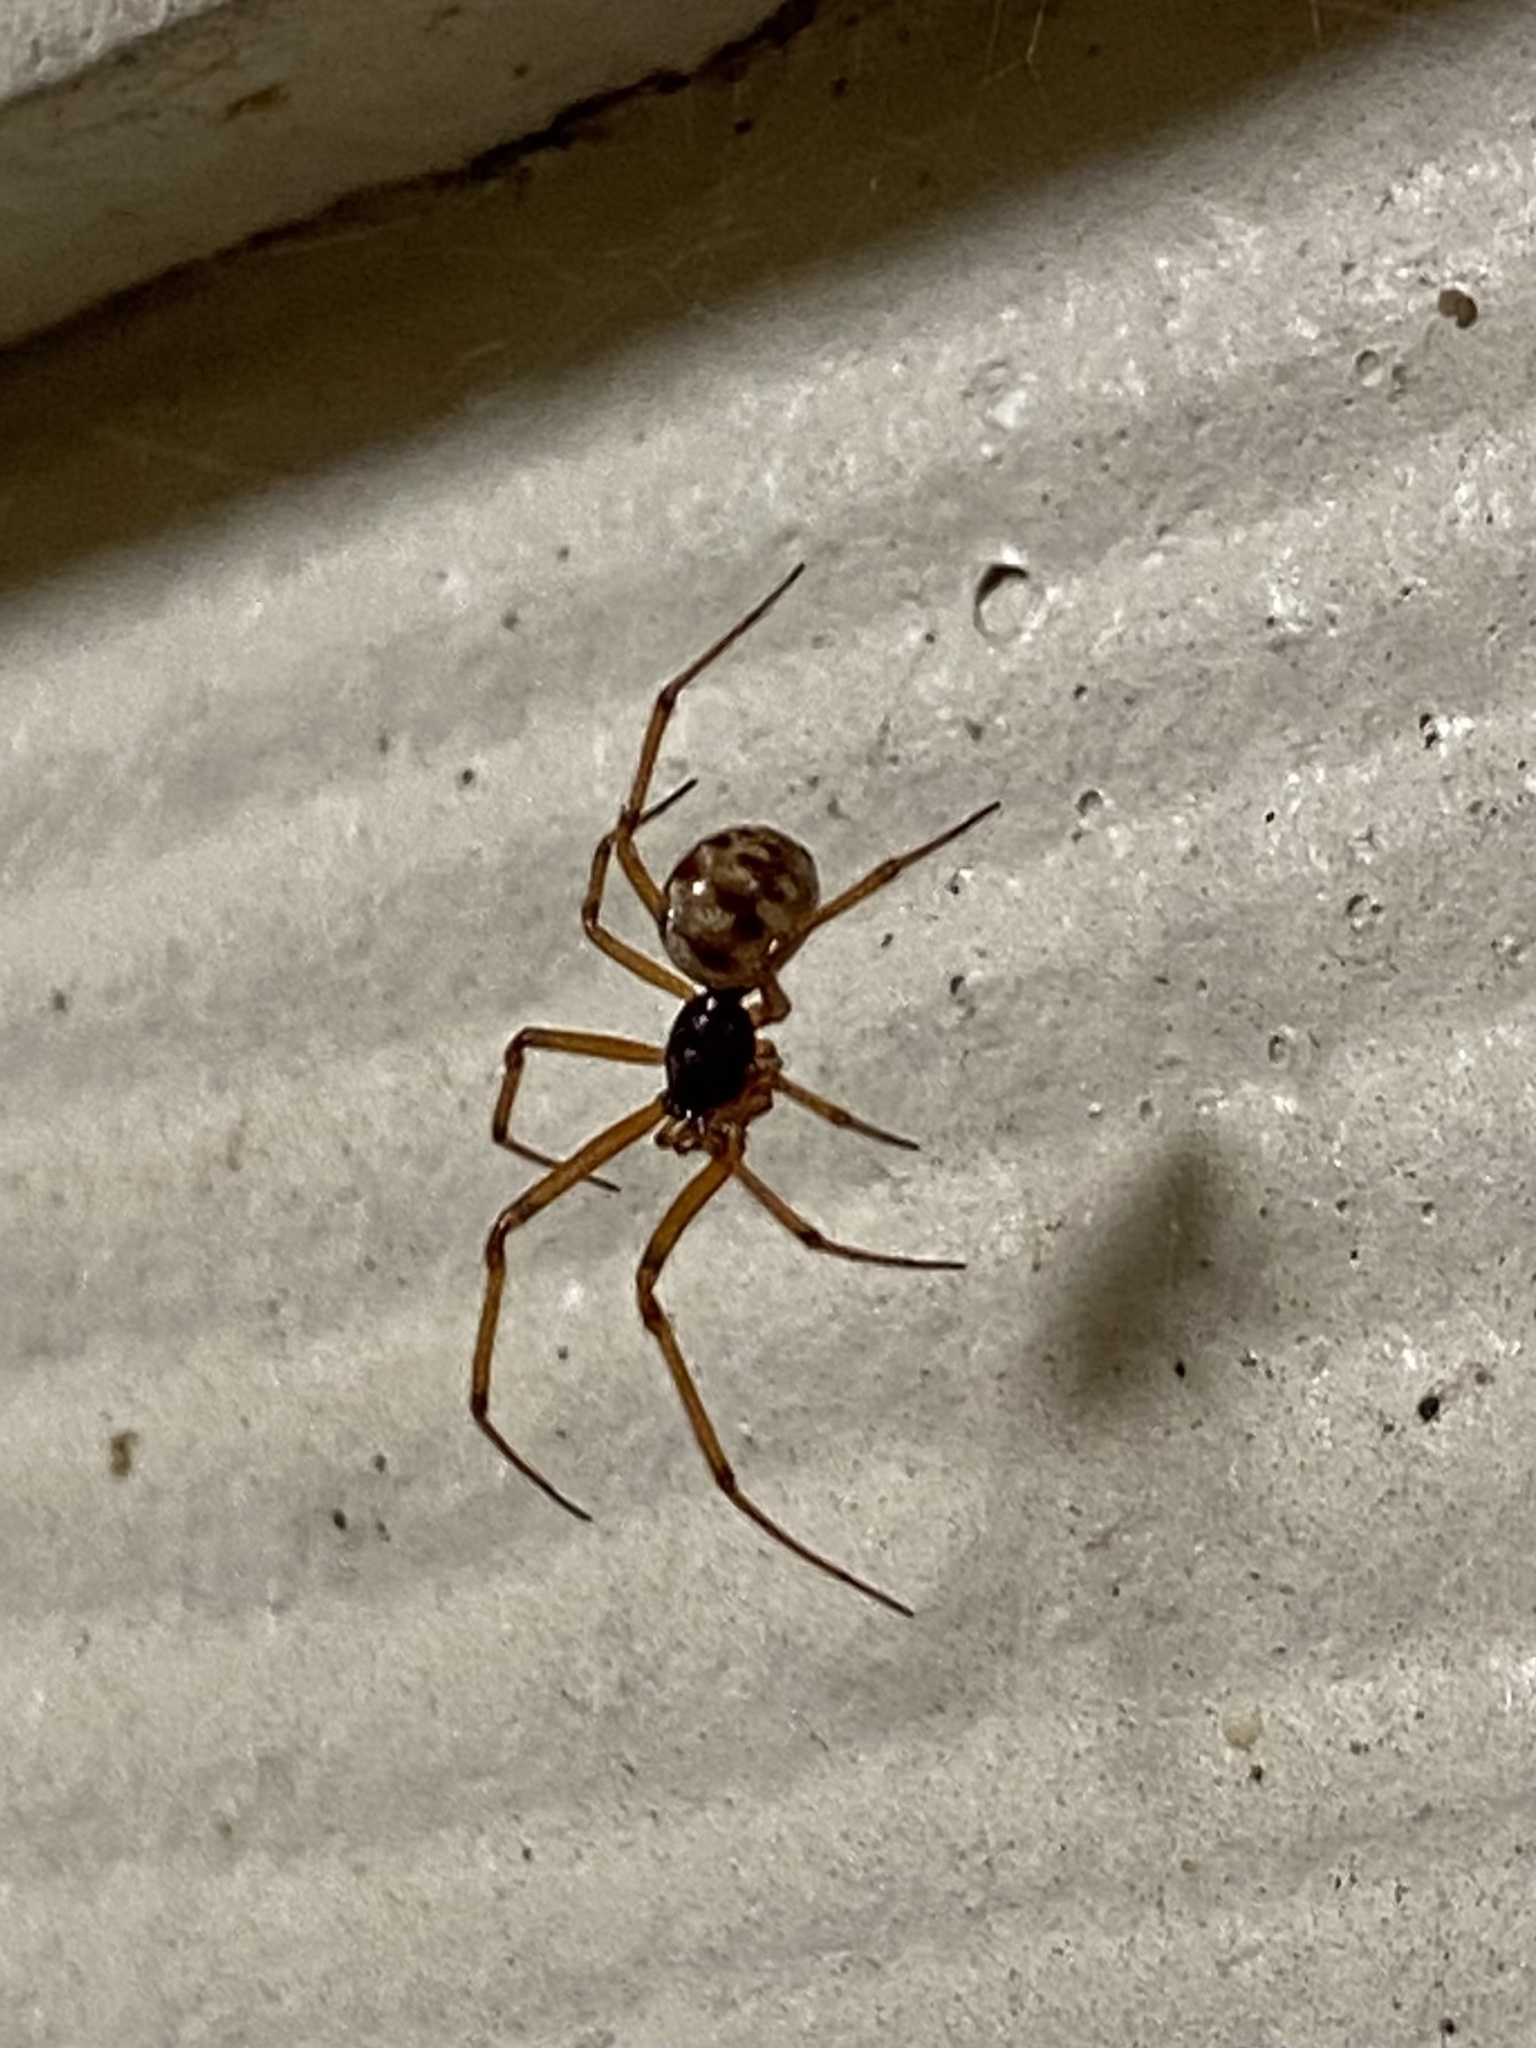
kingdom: Animalia
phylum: Arthropoda
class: Arachnida
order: Araneae
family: Theridiidae
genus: Steatoda
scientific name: Steatoda triangulosa
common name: Triangulate bud spider
